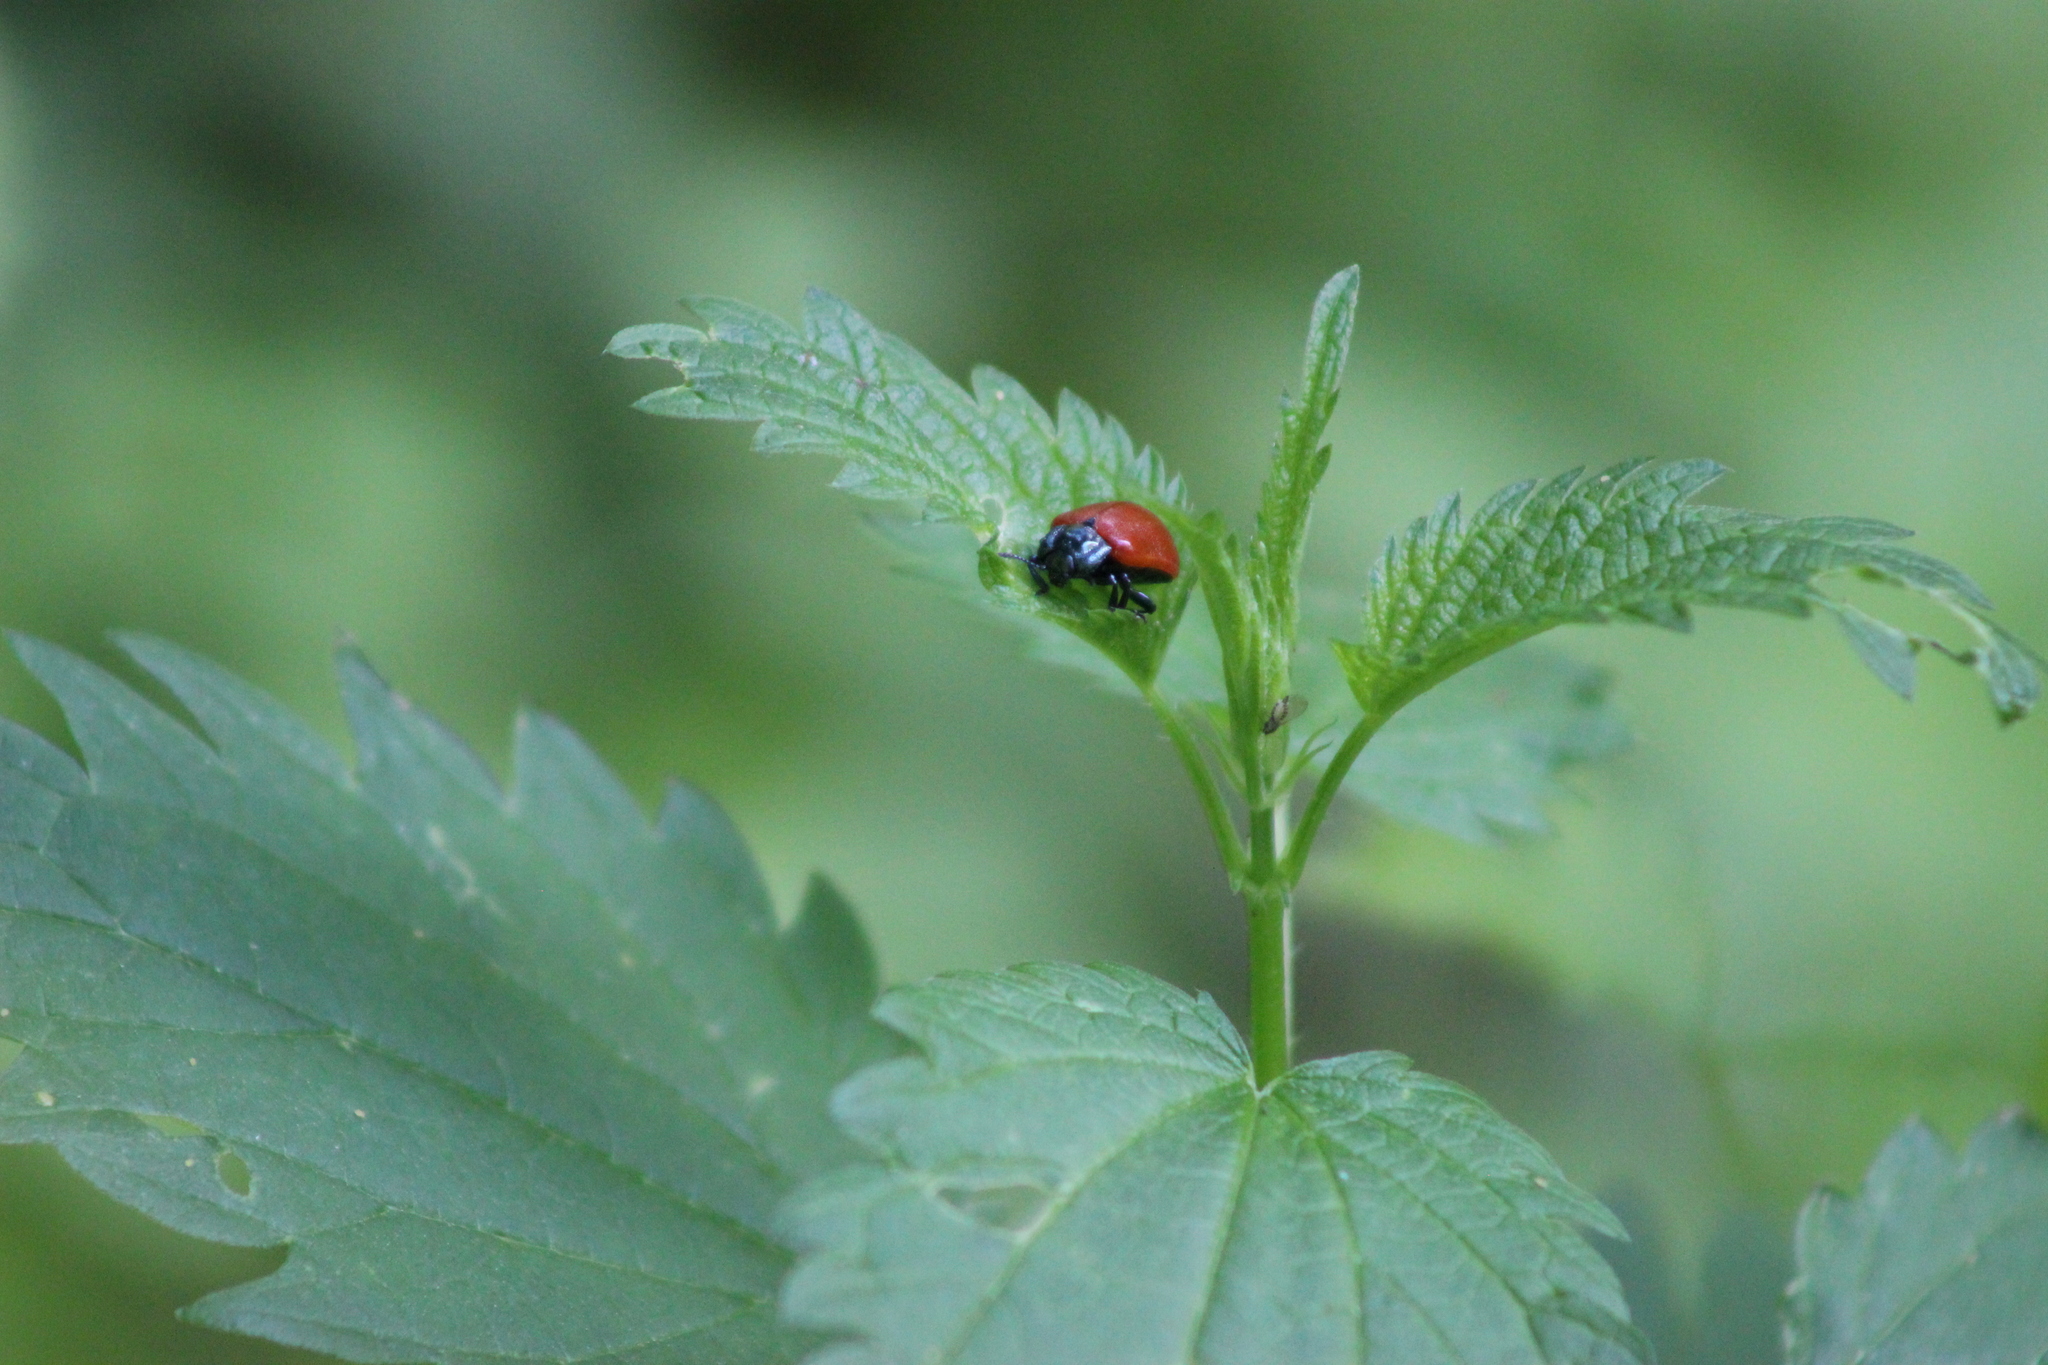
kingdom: Animalia
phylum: Arthropoda
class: Insecta
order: Coleoptera
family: Chrysomelidae
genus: Chrysomela
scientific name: Chrysomela populi
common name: Red poplar leaf beetle
